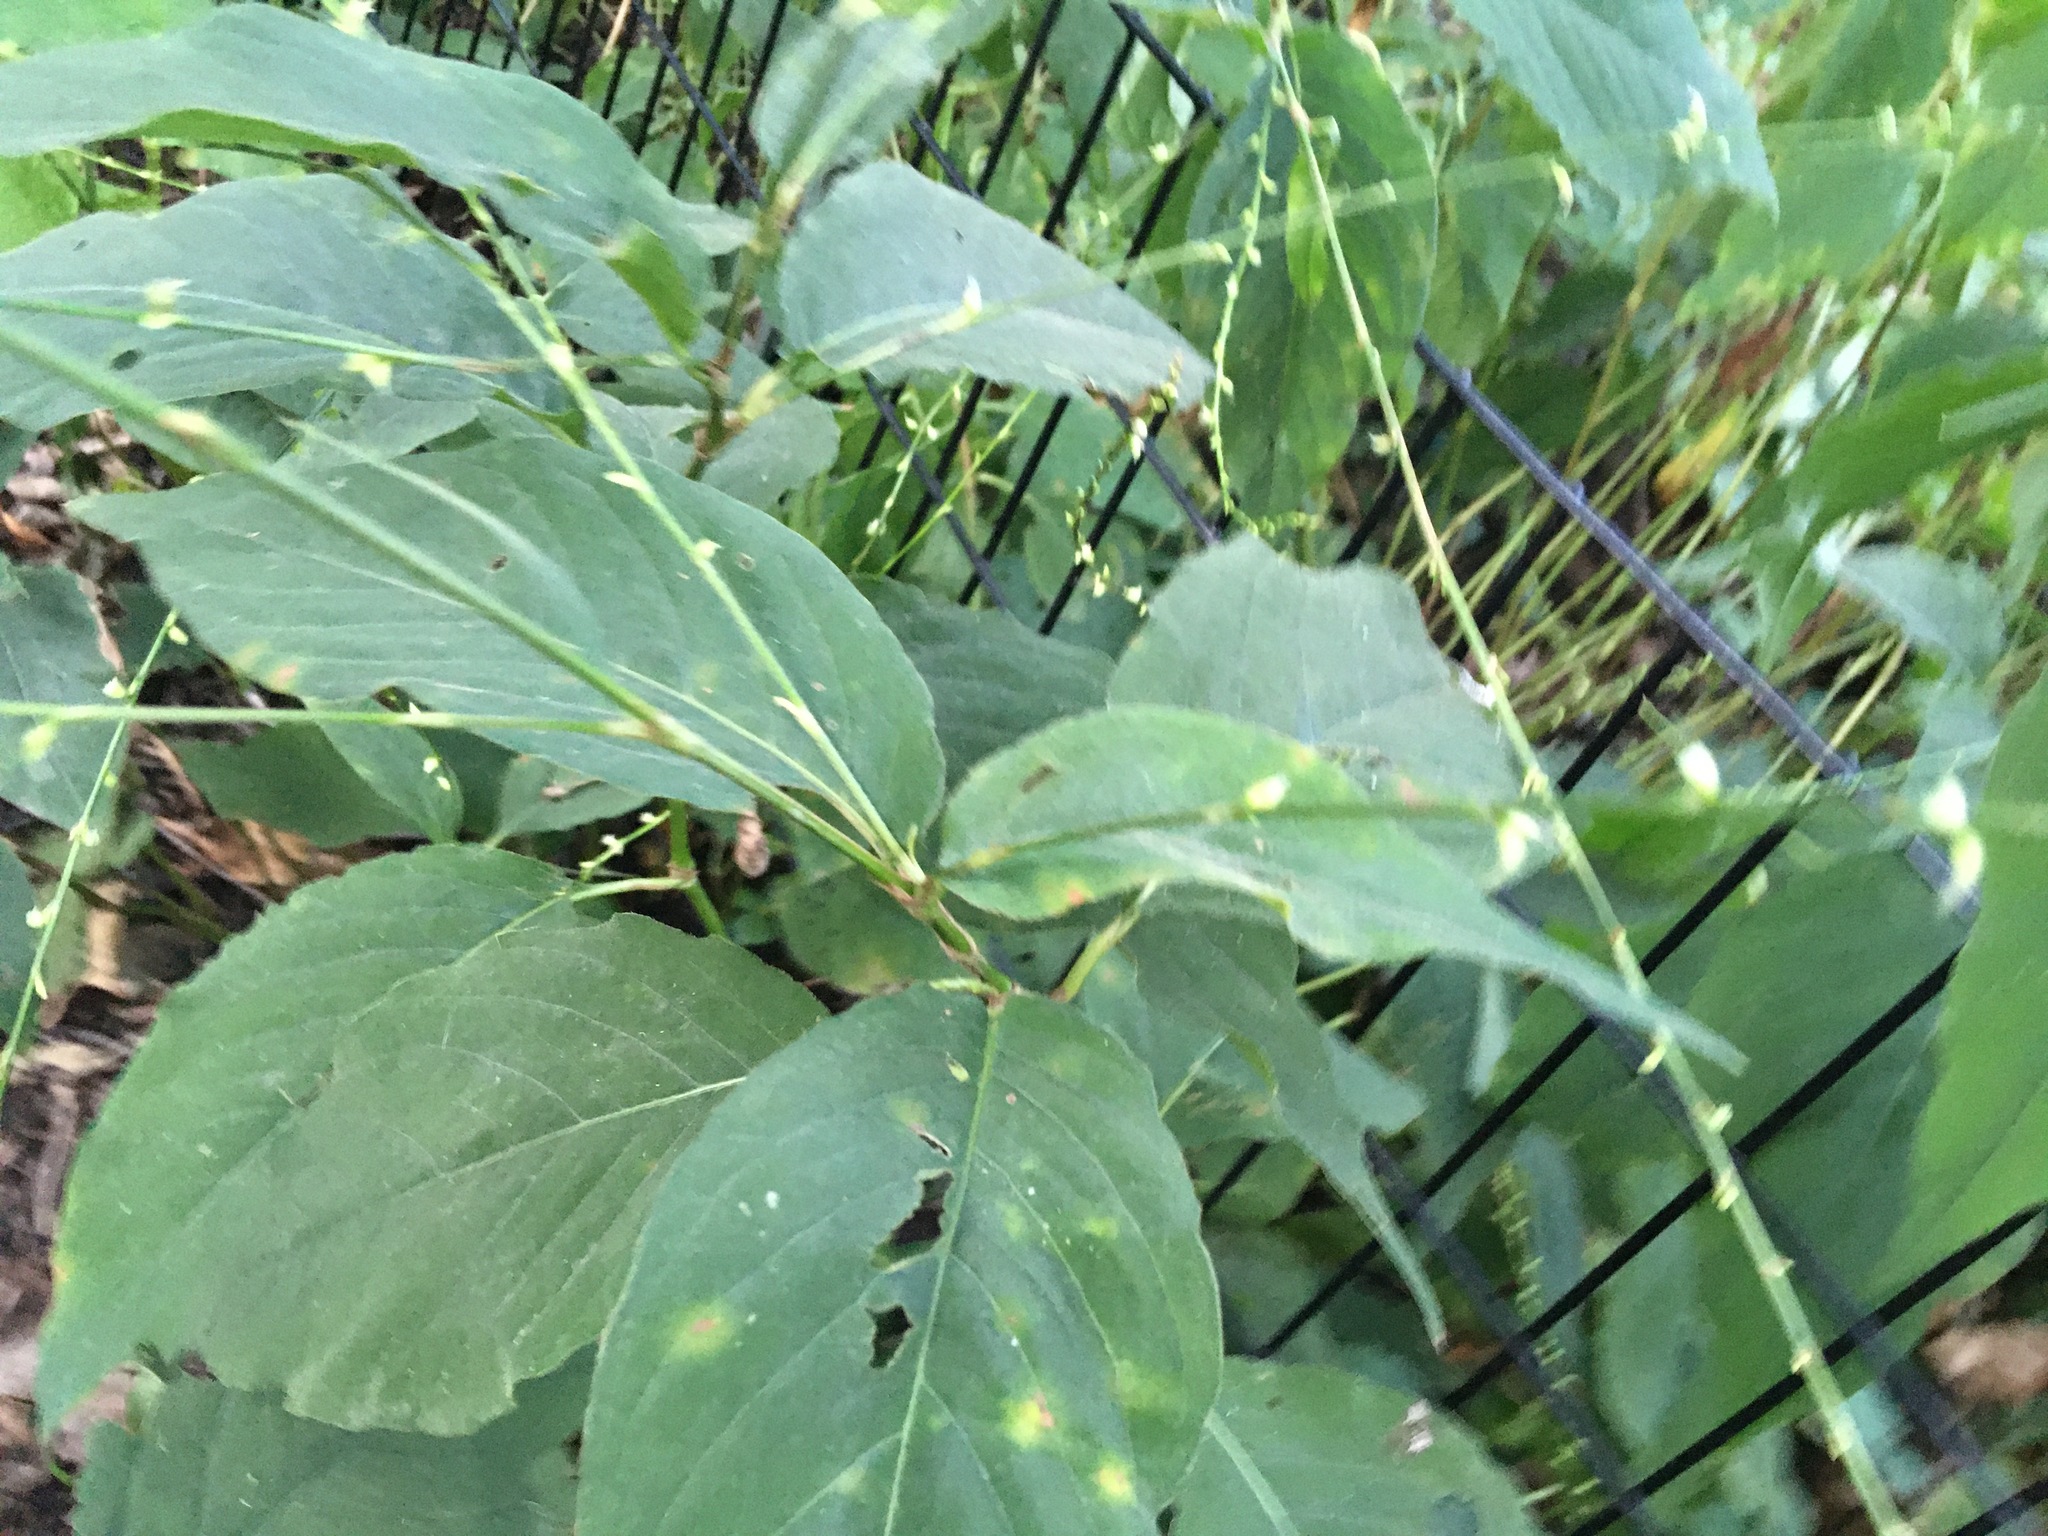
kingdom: Plantae
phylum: Tracheophyta
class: Magnoliopsida
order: Caryophyllales
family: Polygonaceae
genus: Persicaria
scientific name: Persicaria virginiana
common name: Jumpseed
